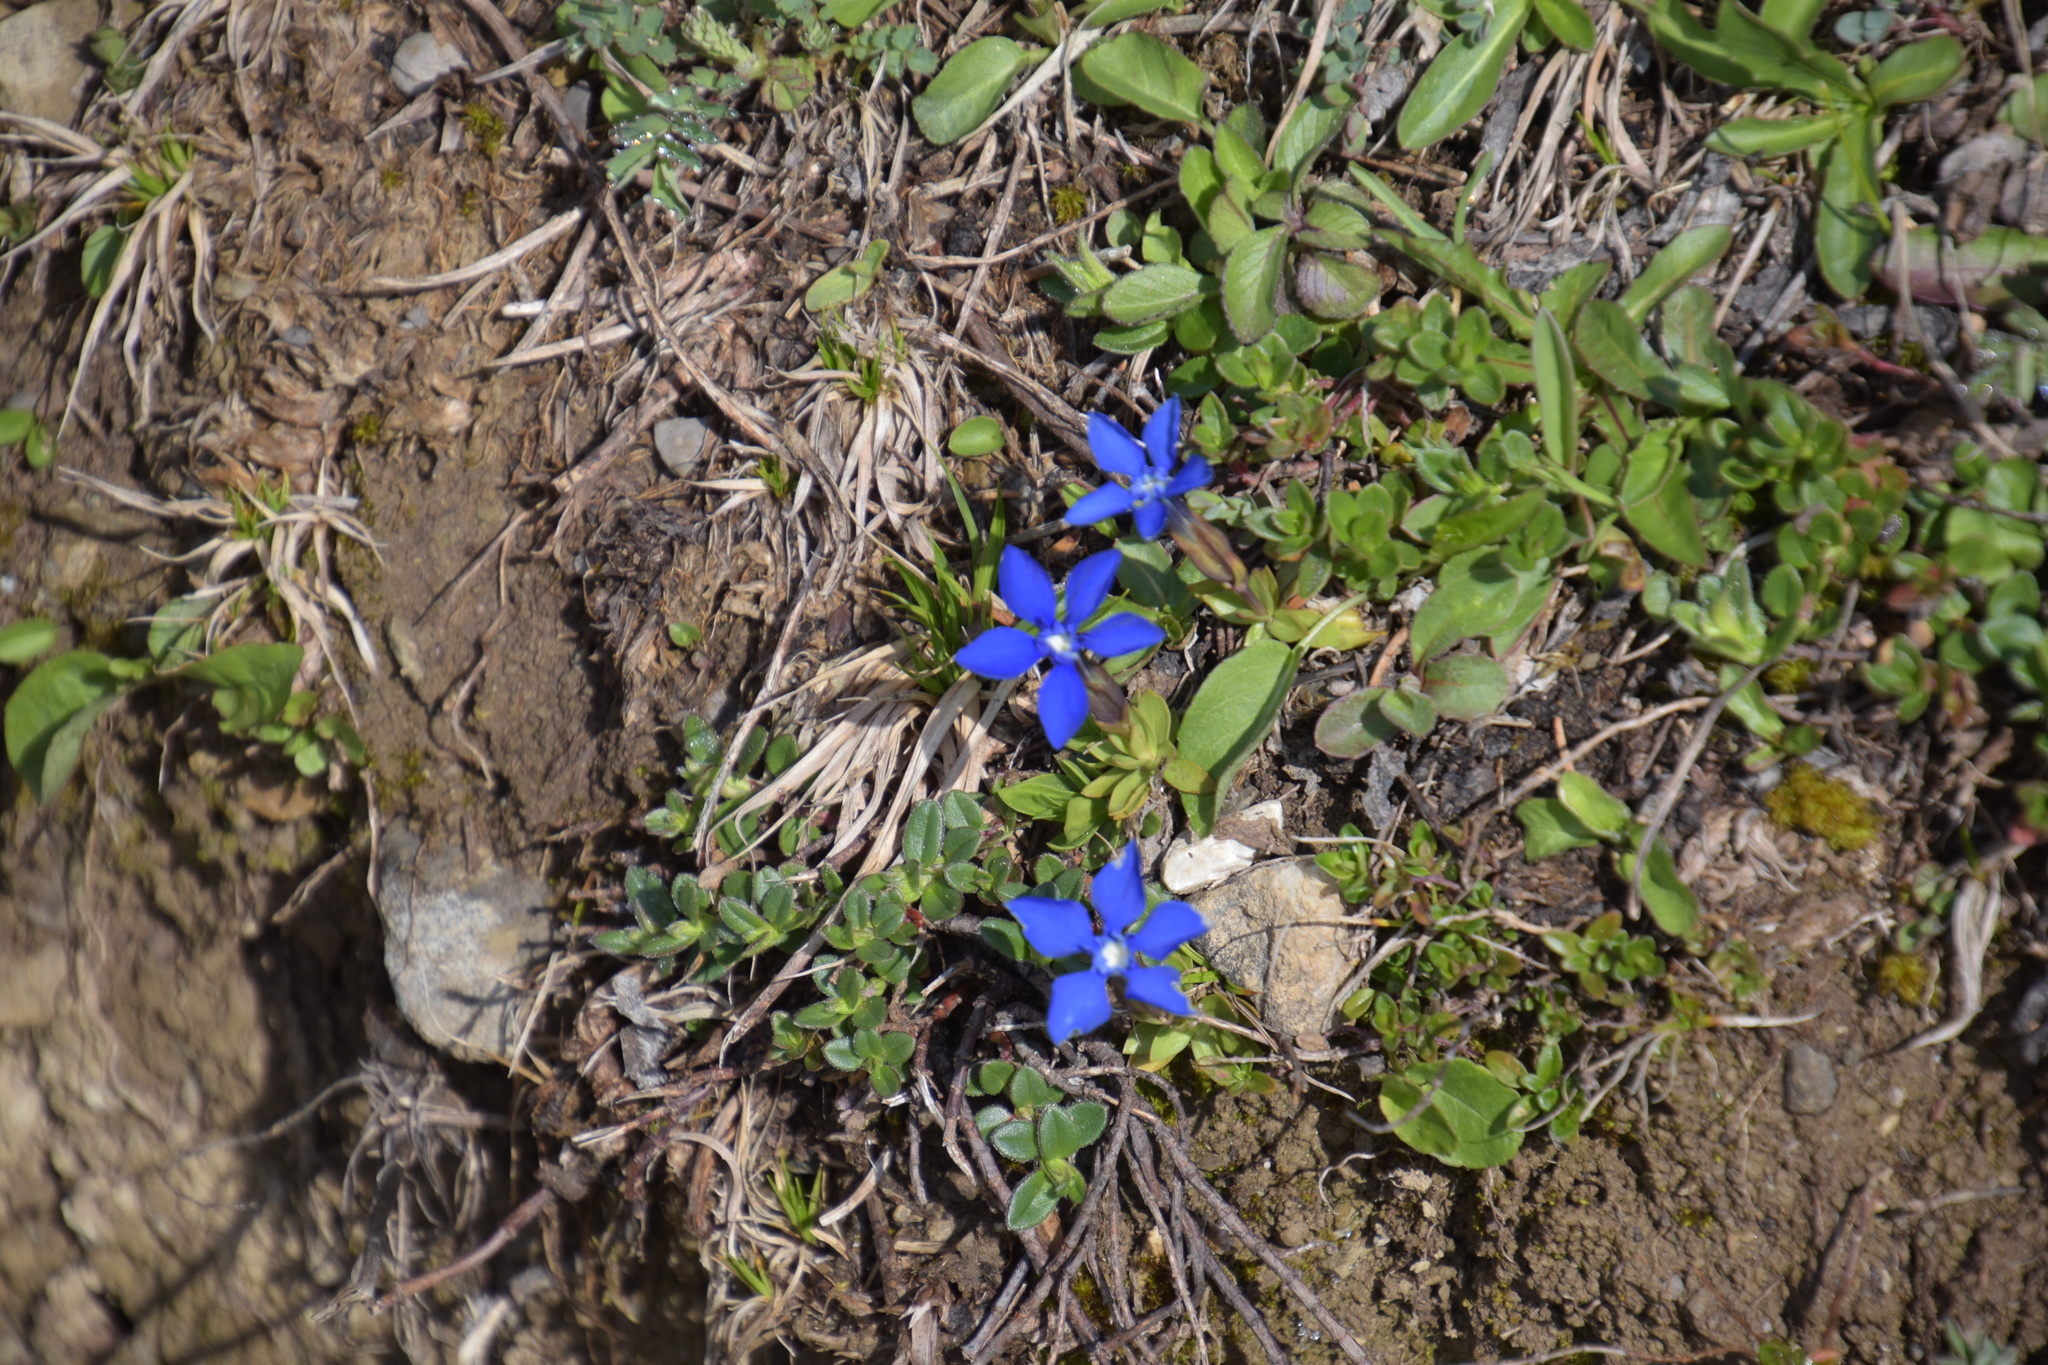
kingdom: Plantae
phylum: Tracheophyta
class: Magnoliopsida
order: Gentianales
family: Gentianaceae
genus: Gentiana
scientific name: Gentiana verna
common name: Spring gentian
